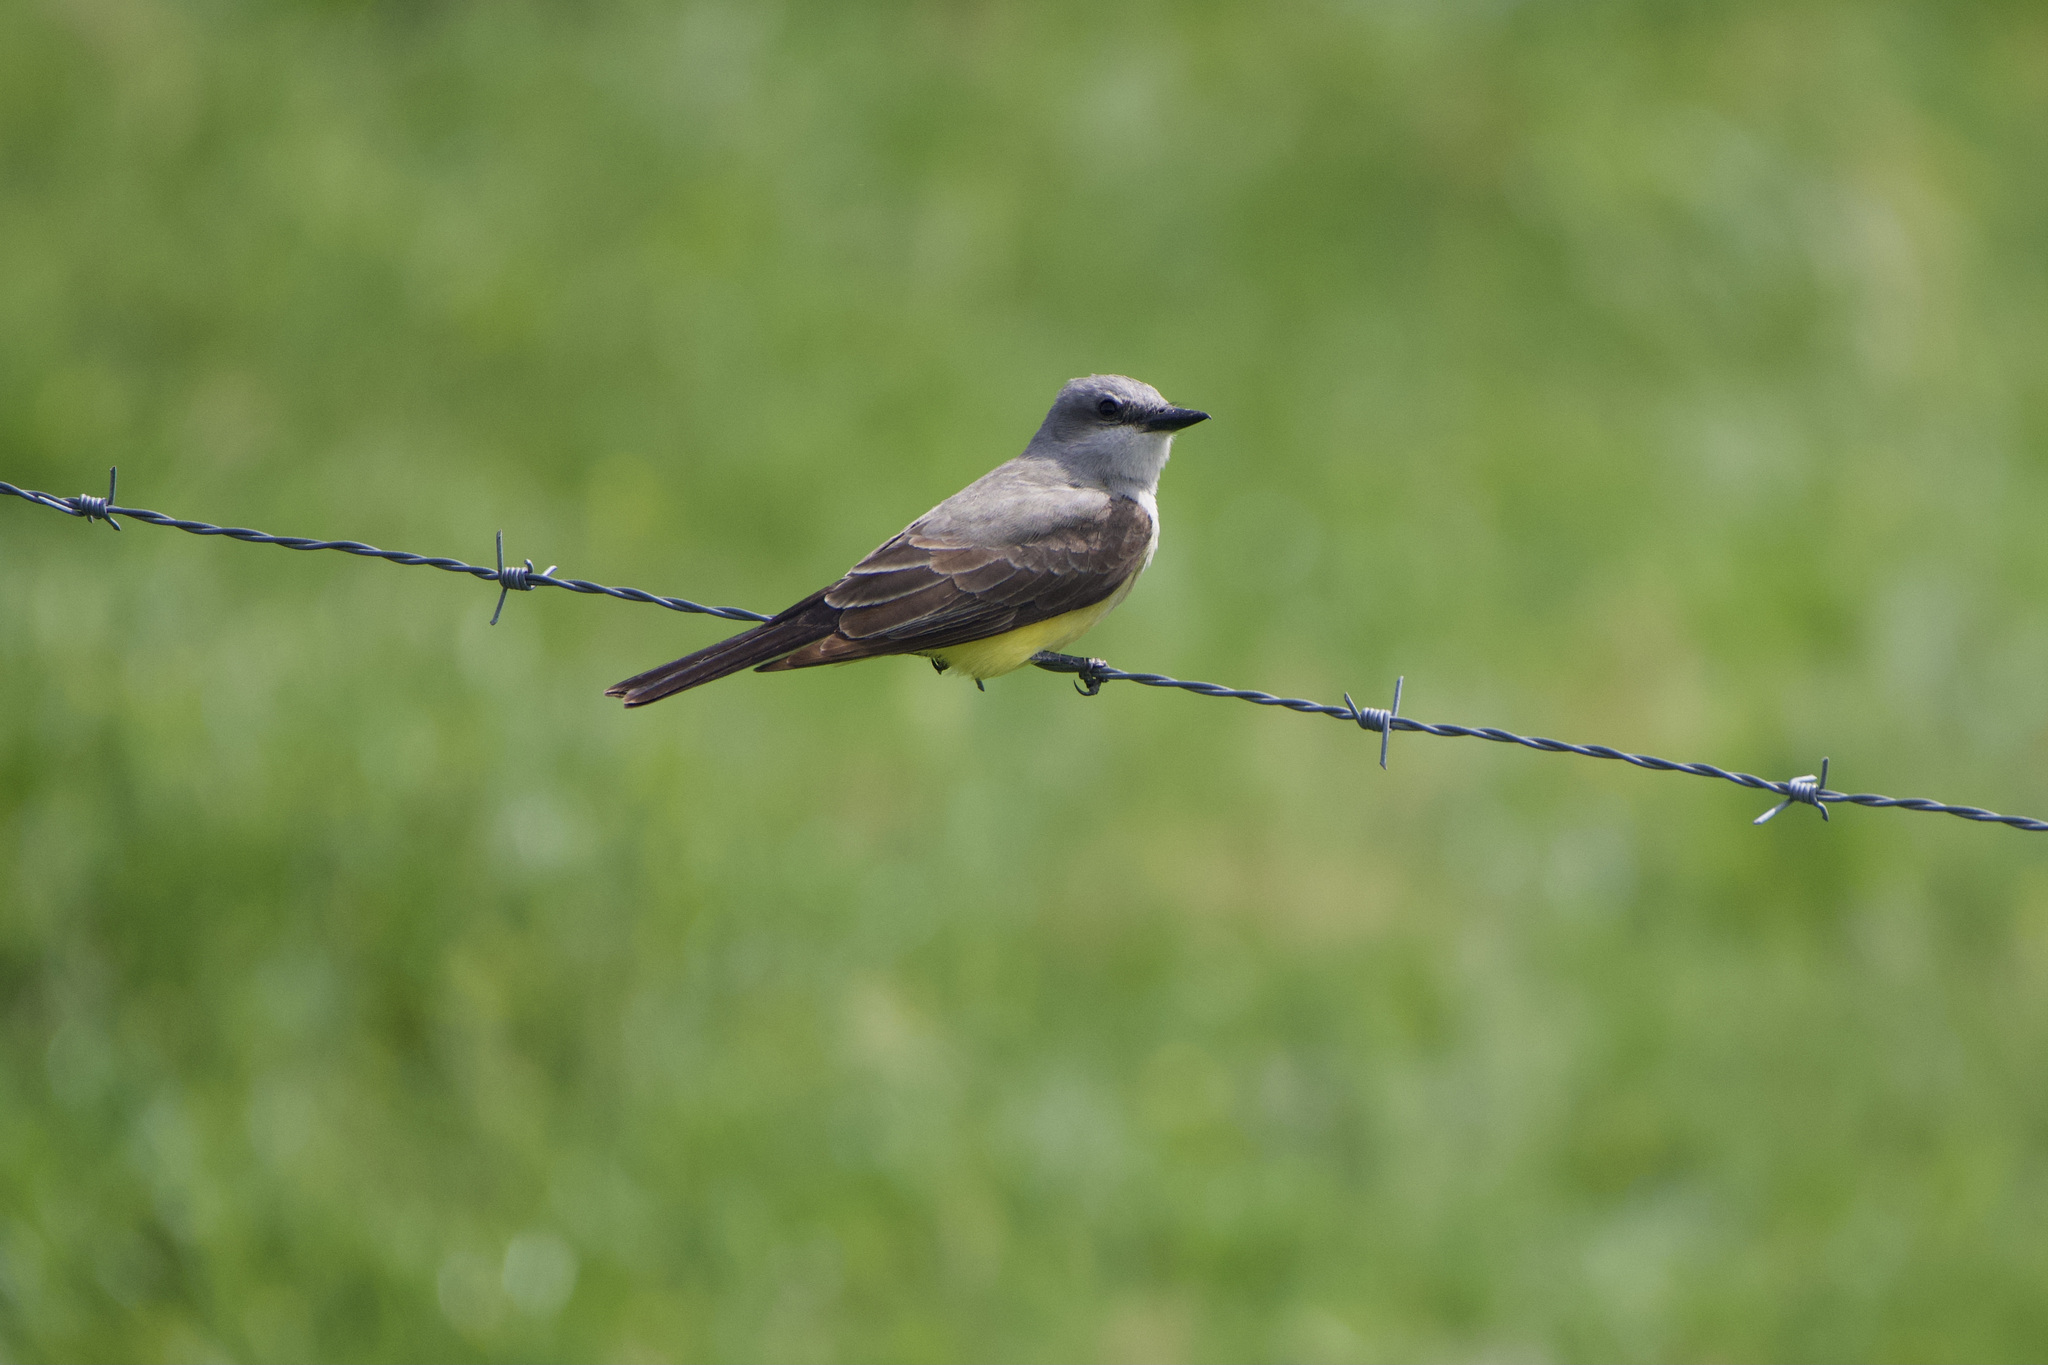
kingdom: Animalia
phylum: Chordata
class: Aves
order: Passeriformes
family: Tyrannidae
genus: Tyrannus
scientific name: Tyrannus verticalis
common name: Western kingbird
